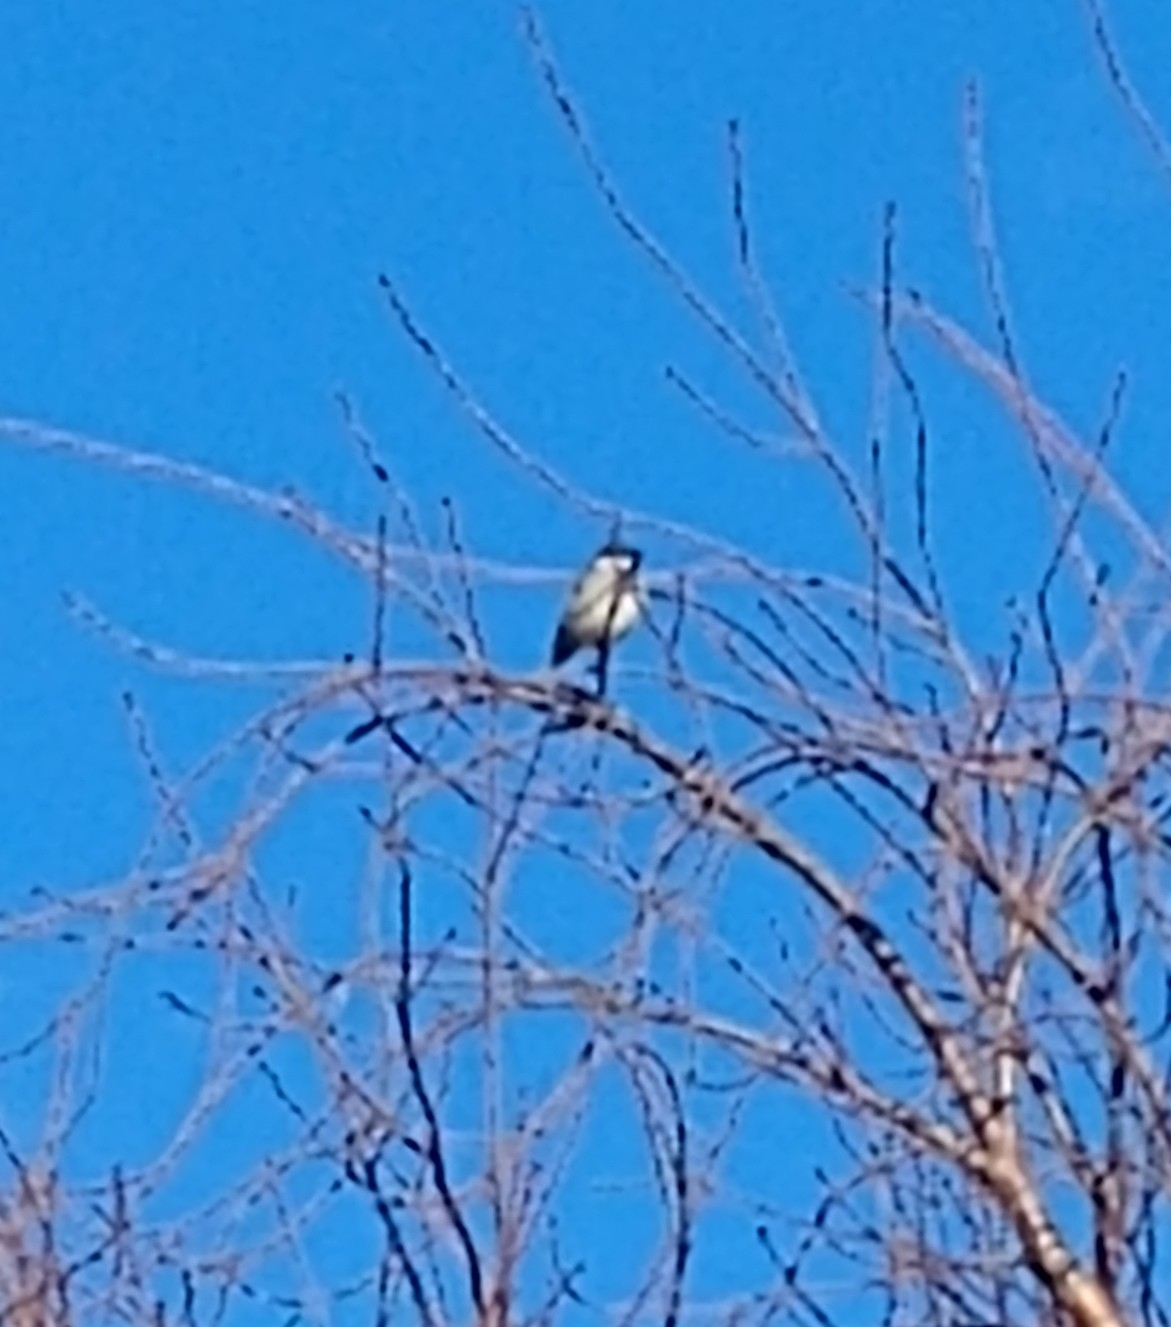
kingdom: Animalia
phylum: Chordata
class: Aves
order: Passeriformes
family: Passeridae
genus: Passer
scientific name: Passer domesticus
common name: House sparrow
